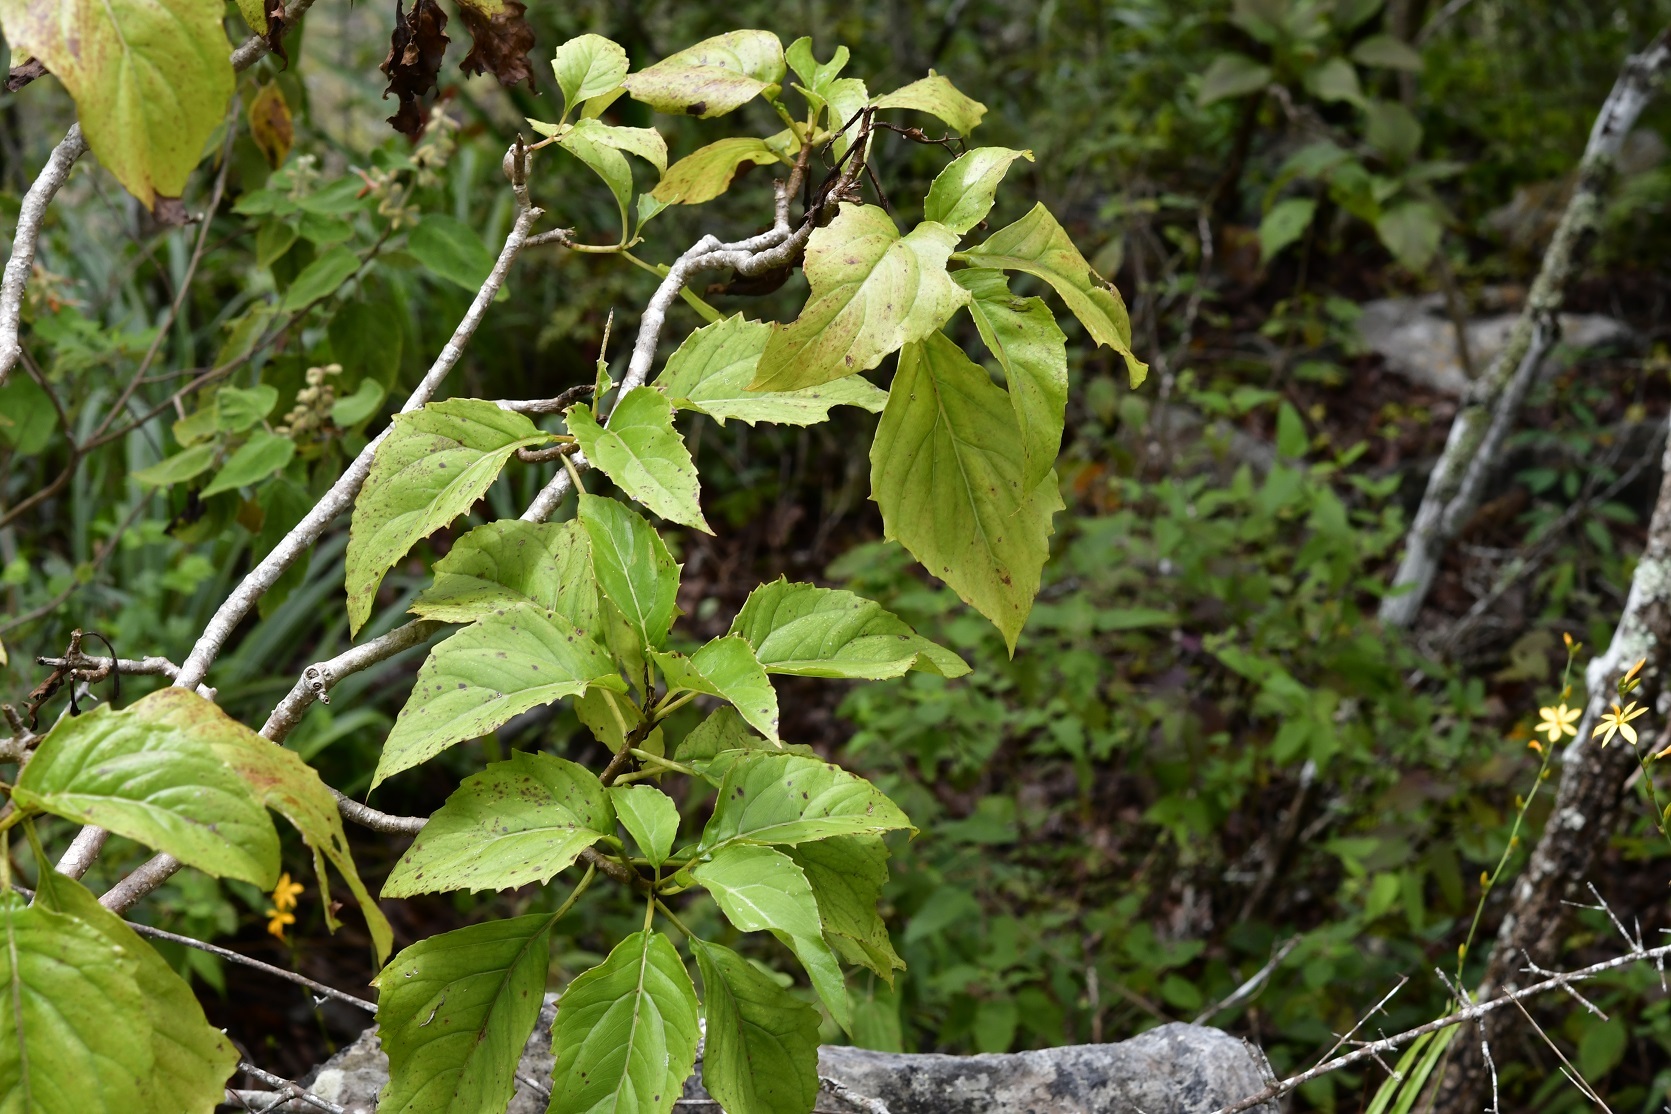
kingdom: Plantae
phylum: Tracheophyta
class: Magnoliopsida
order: Asterales
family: Asteraceae
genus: Pittocaulon
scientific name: Pittocaulon velatum
